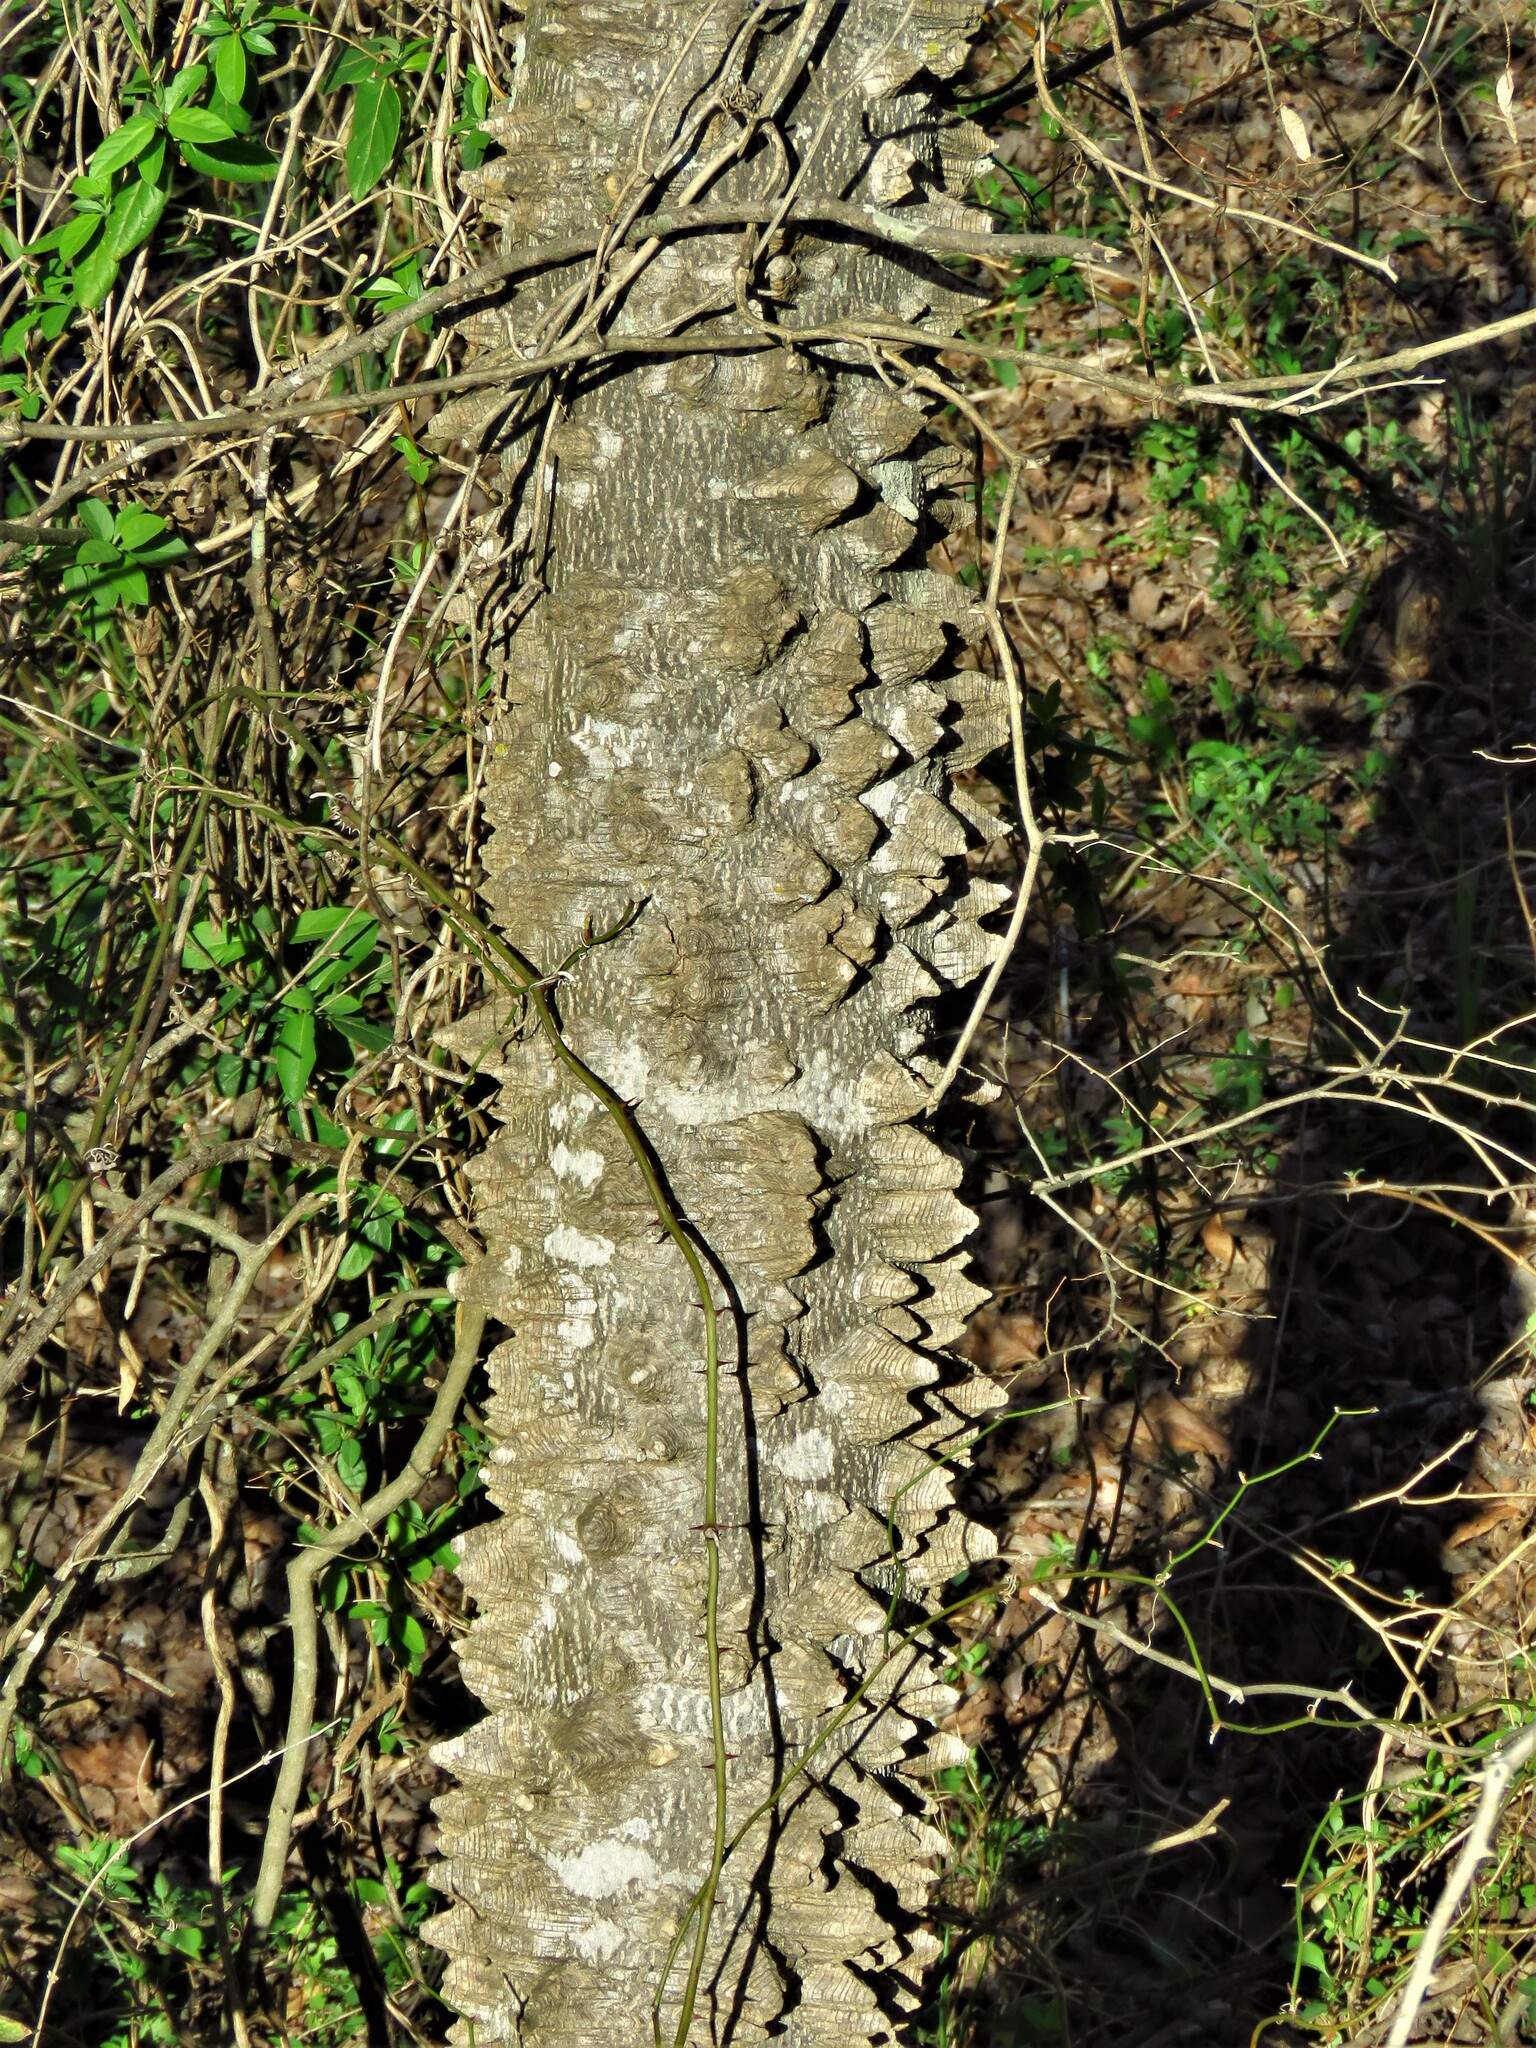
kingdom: Plantae
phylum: Tracheophyta
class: Magnoliopsida
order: Sapindales
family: Rutaceae
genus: Zanthoxylum
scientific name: Zanthoxylum clava-herculis
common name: Hercules'-club
